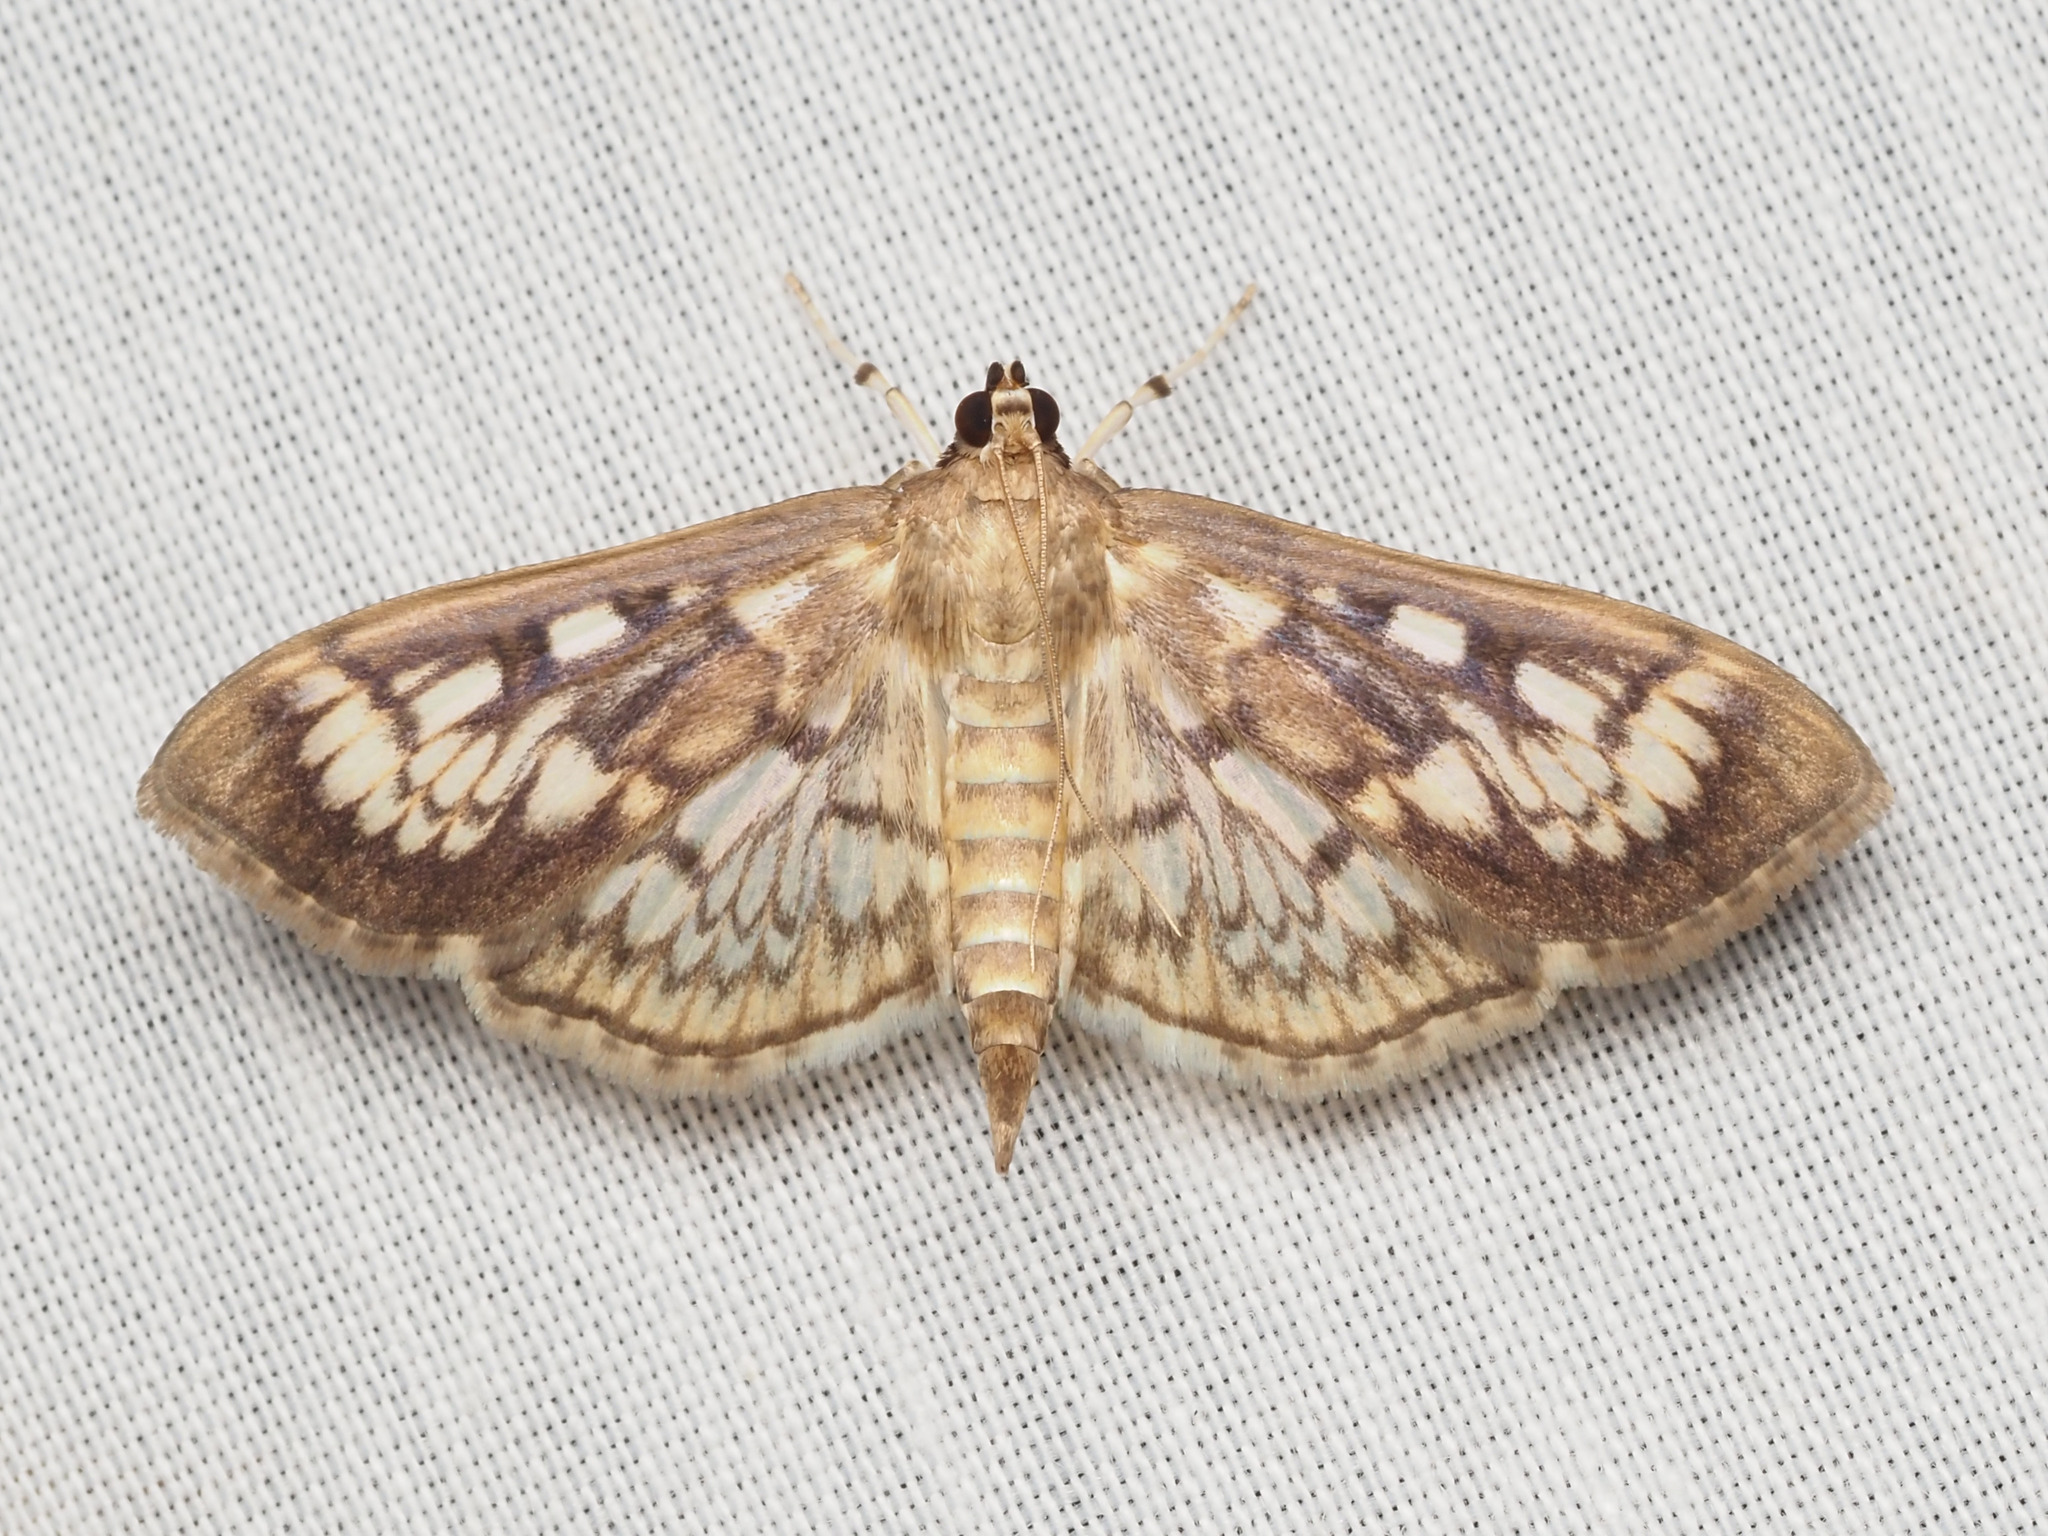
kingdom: Animalia
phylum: Arthropoda
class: Insecta
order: Lepidoptera
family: Crambidae
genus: Herpetogramma
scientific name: Herpetogramma thestealis
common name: Zigzag herpetogramma moth
